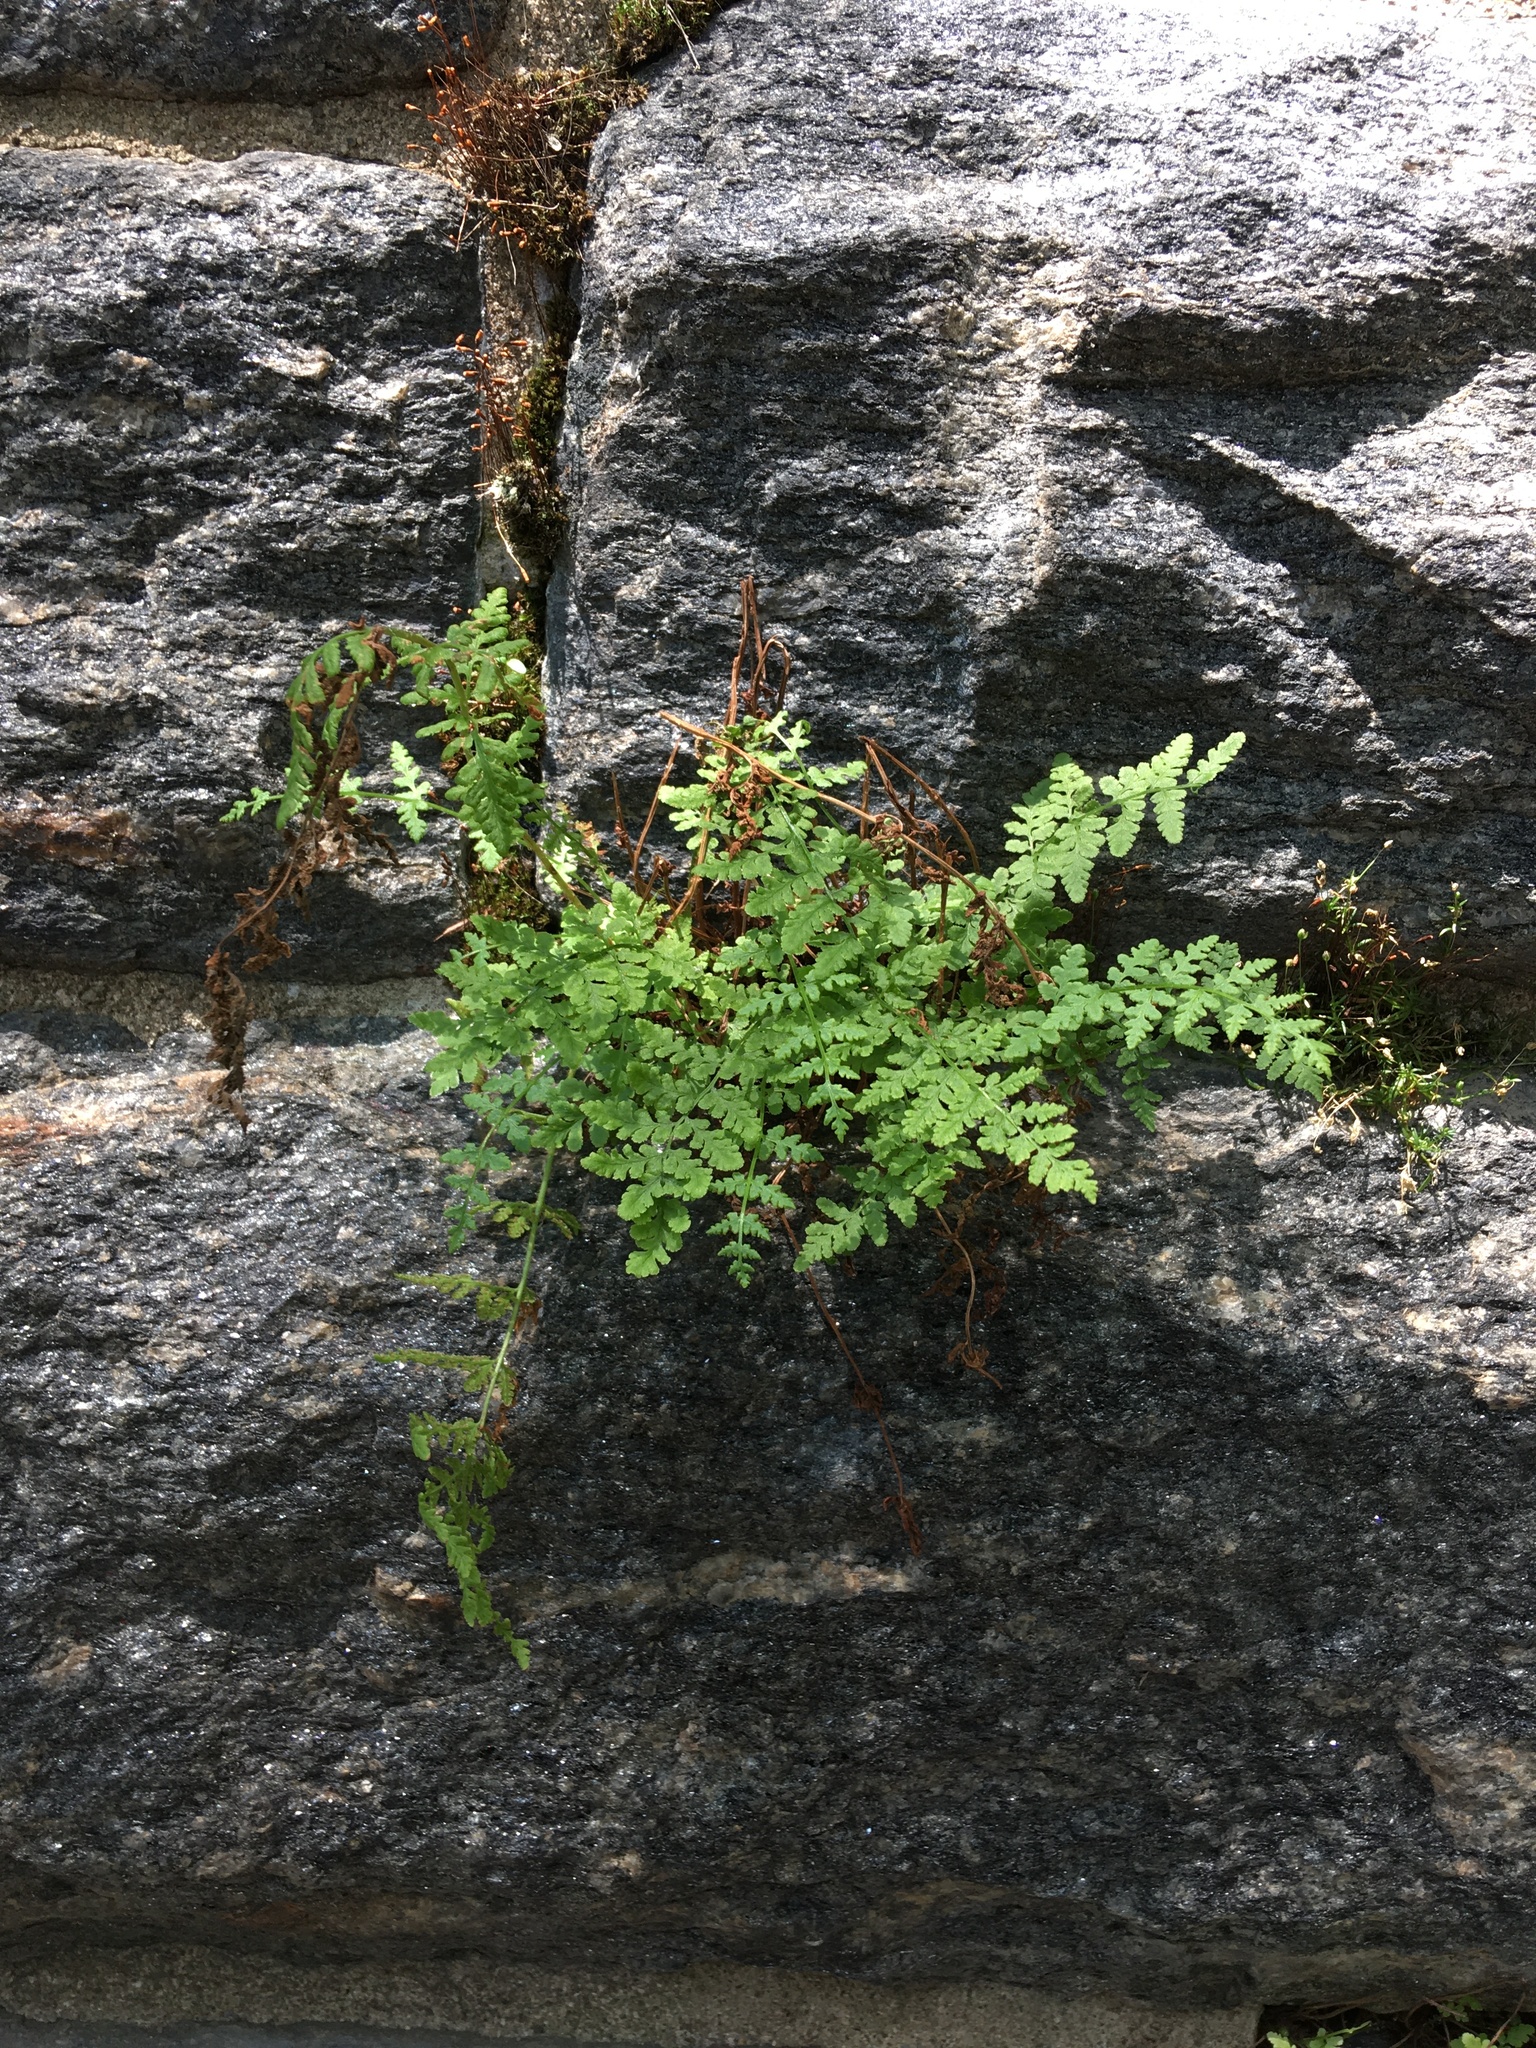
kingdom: Plantae
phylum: Tracheophyta
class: Polypodiopsida
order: Polypodiales
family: Woodsiaceae
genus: Physematium
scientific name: Physematium obtusum
